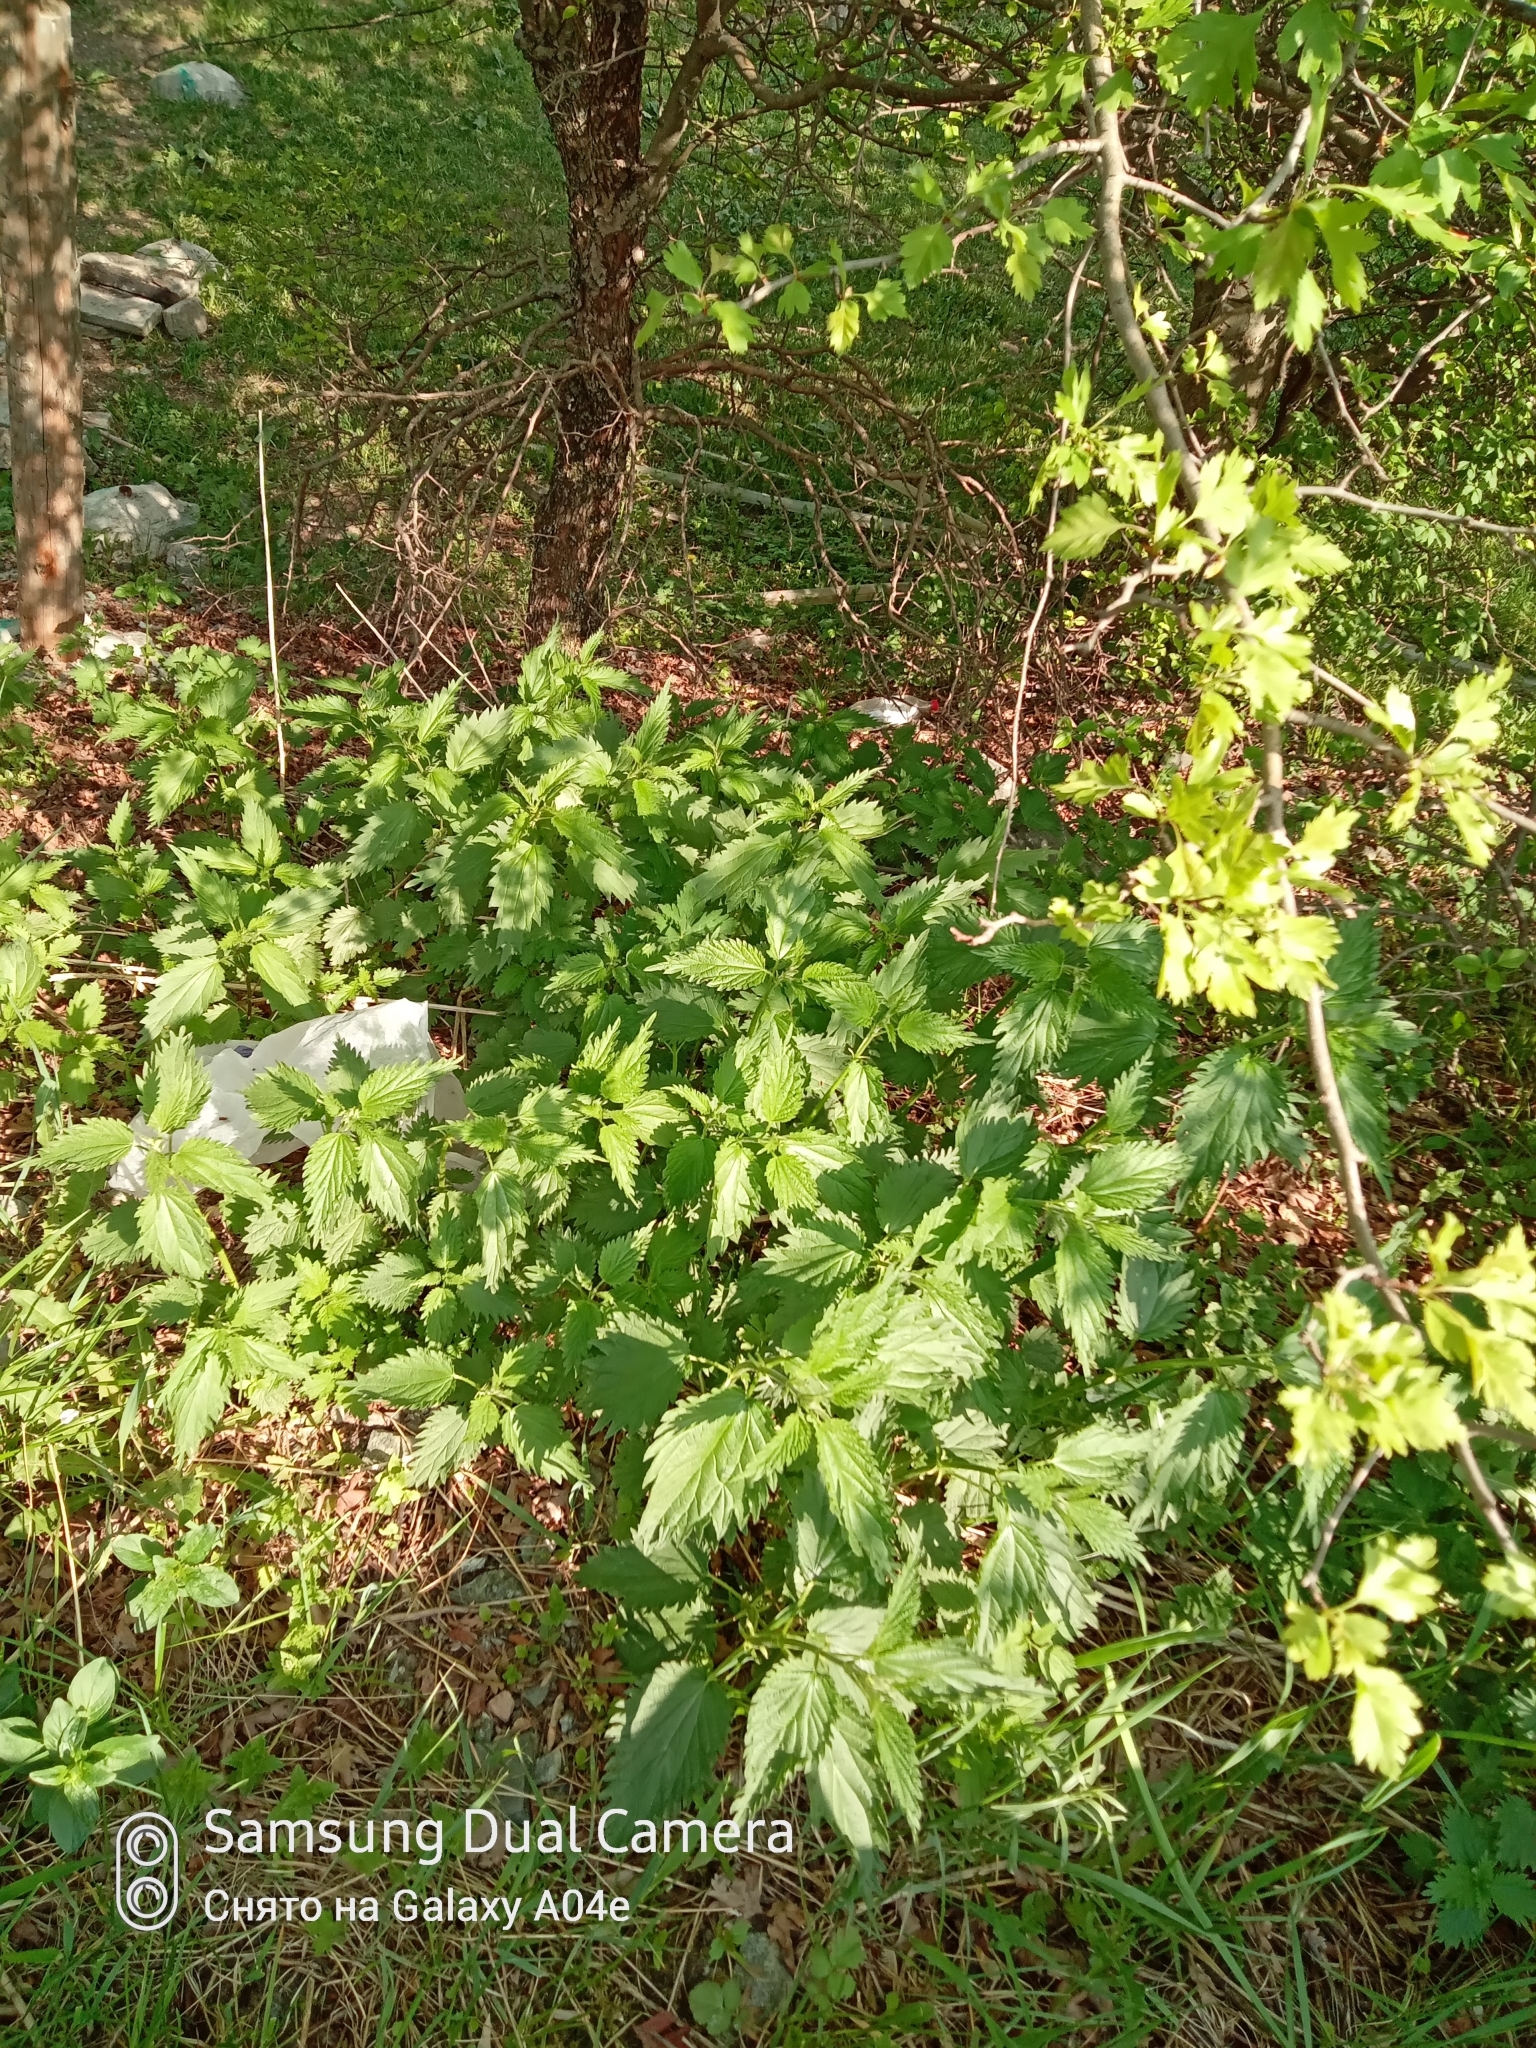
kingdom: Plantae
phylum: Tracheophyta
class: Magnoliopsida
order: Rosales
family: Urticaceae
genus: Urtica
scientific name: Urtica dioica
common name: Common nettle
